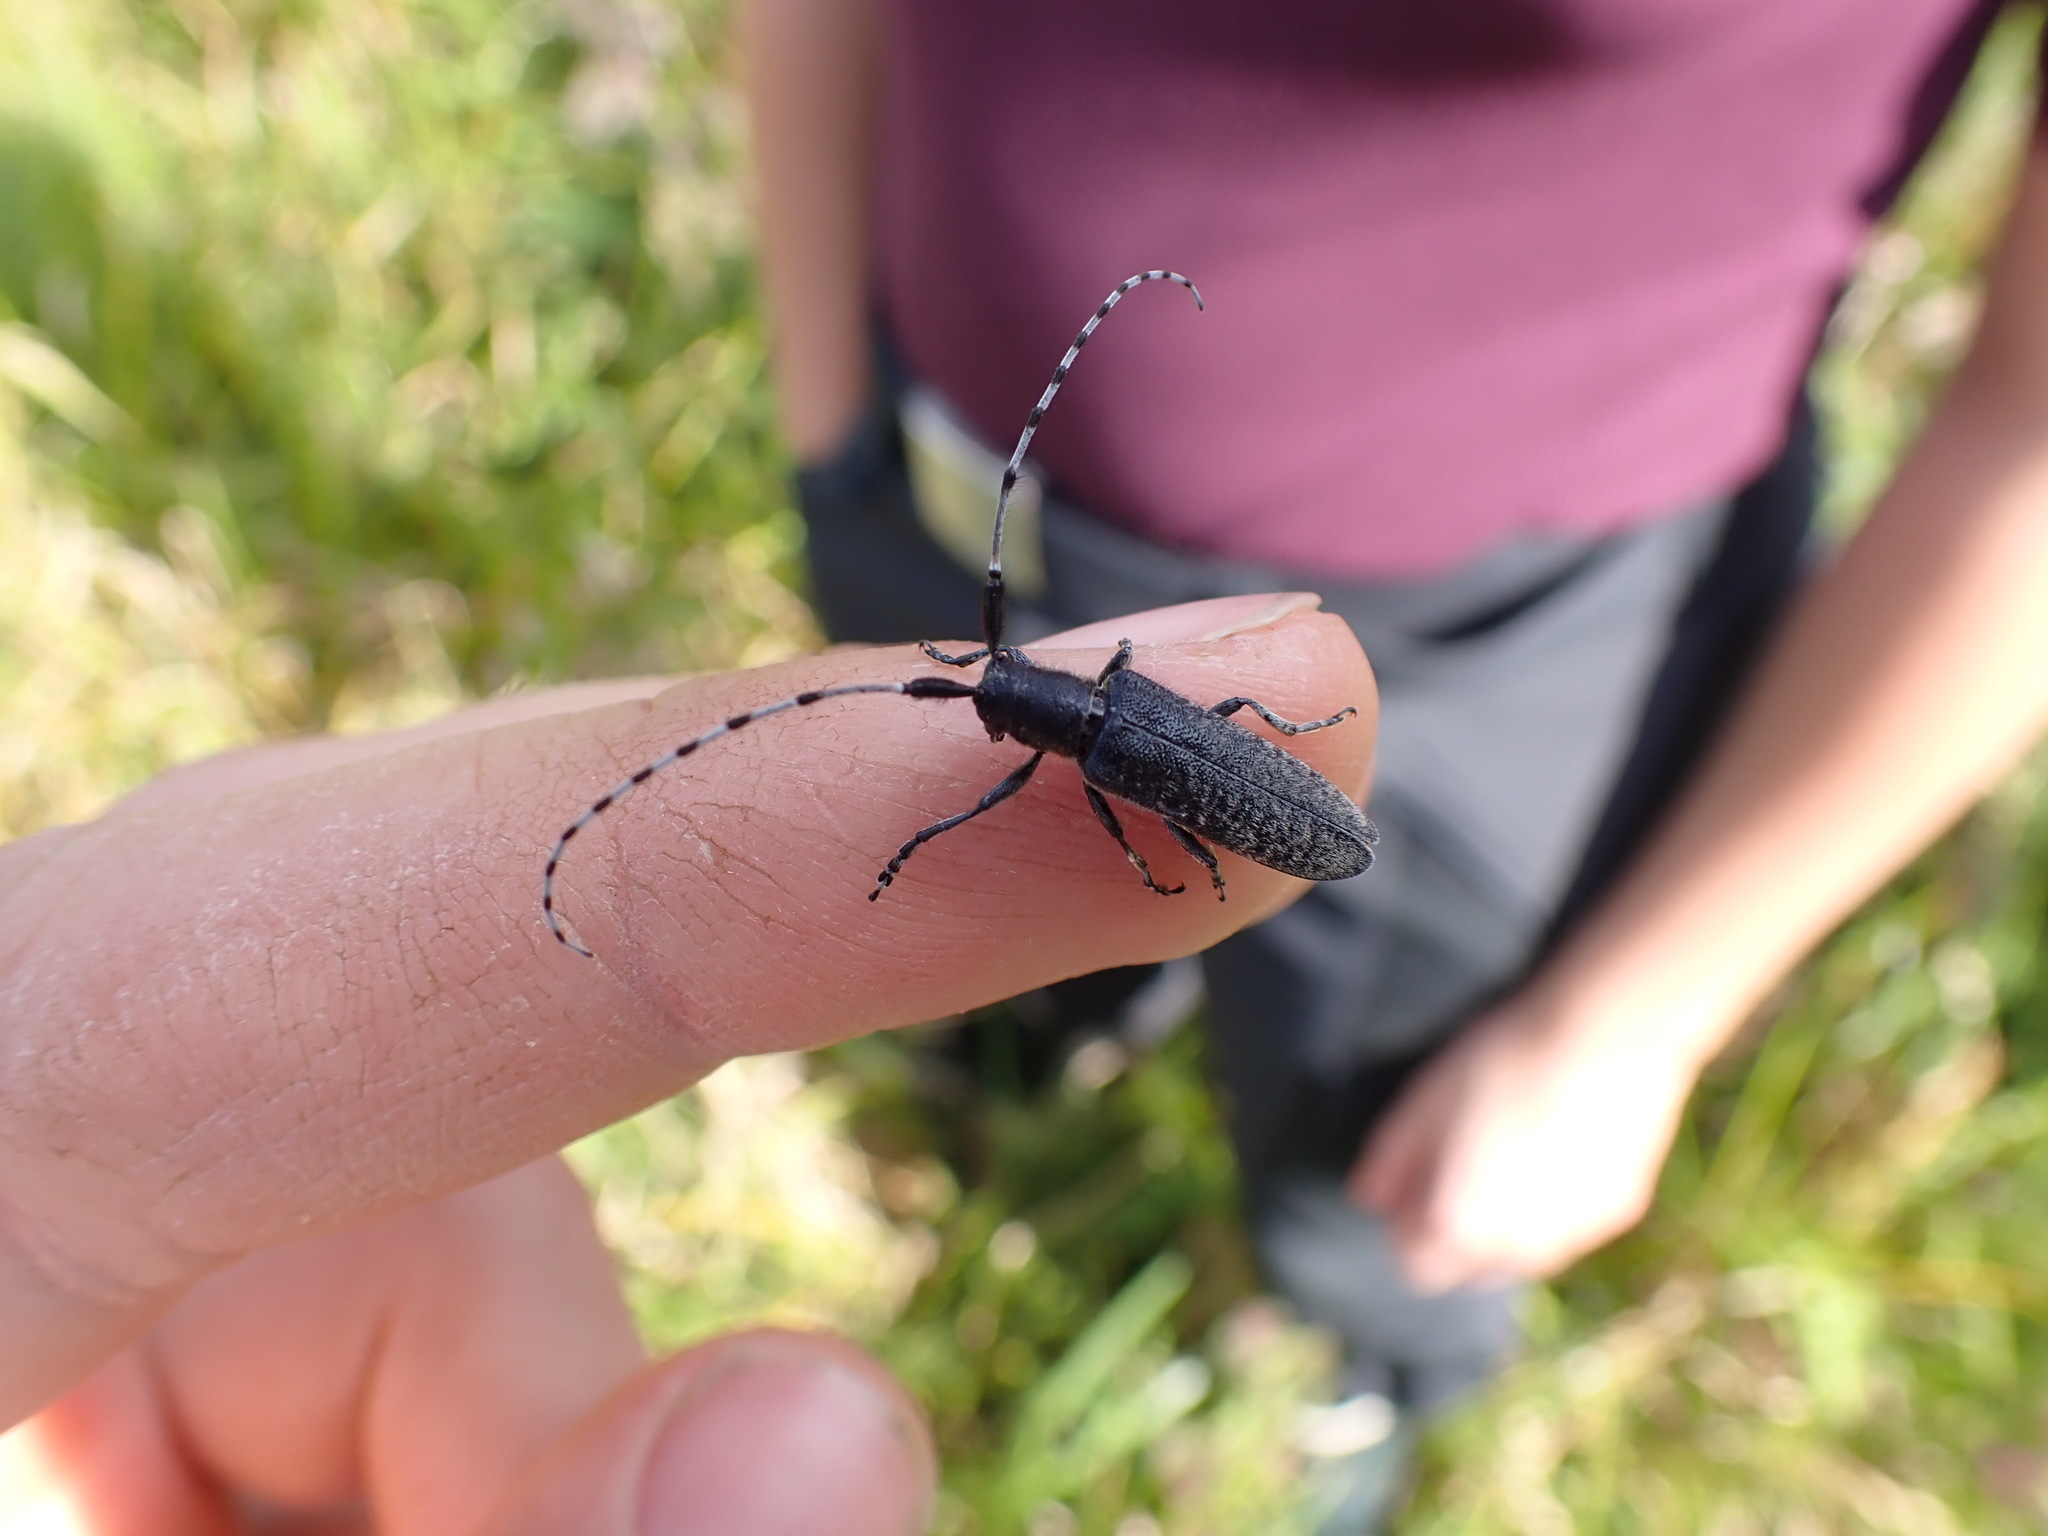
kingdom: Animalia
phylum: Arthropoda
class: Insecta
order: Coleoptera
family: Cerambycidae
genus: Agapanthia
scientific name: Agapanthia villosoviridescens
